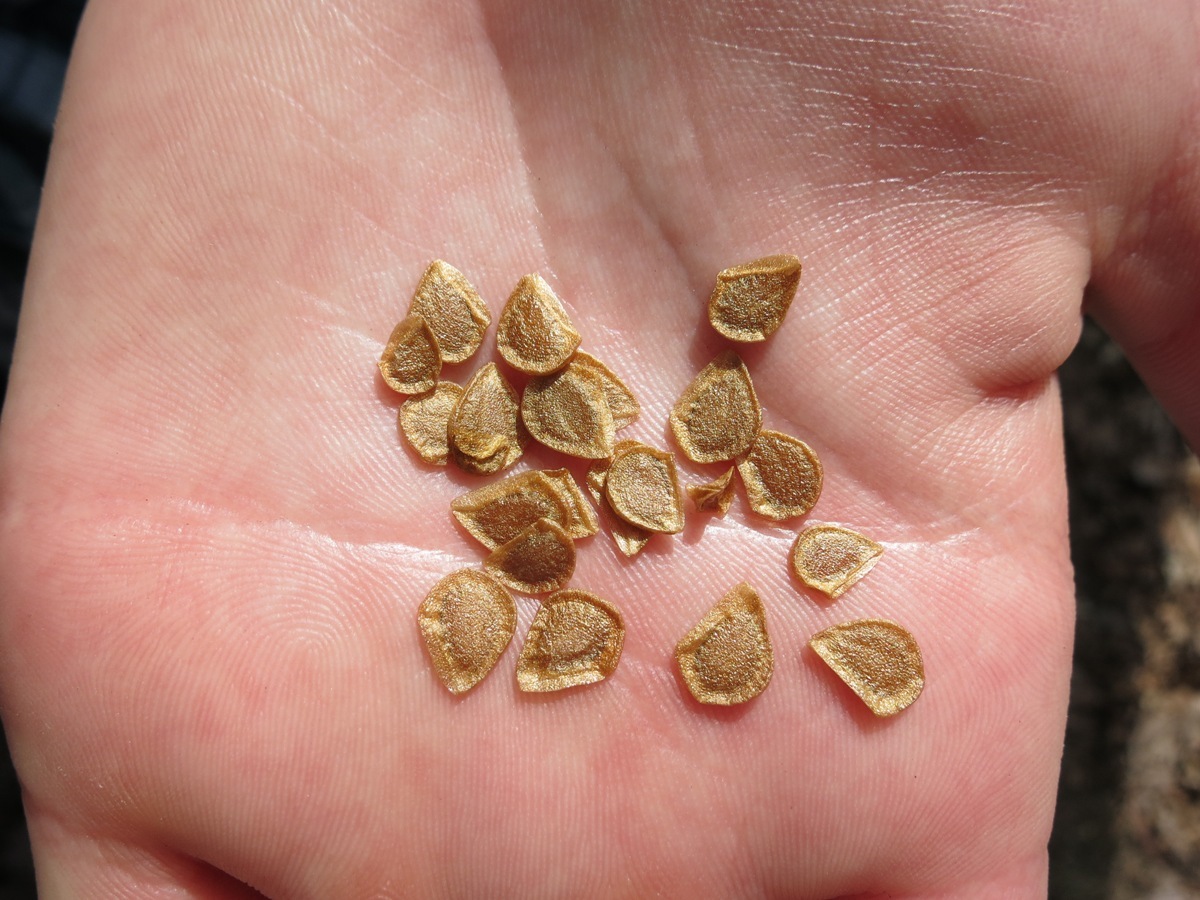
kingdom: Plantae
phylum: Tracheophyta
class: Liliopsida
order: Liliales
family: Liliaceae
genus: Lilium
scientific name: Lilium michauxii
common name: Carolina lily
